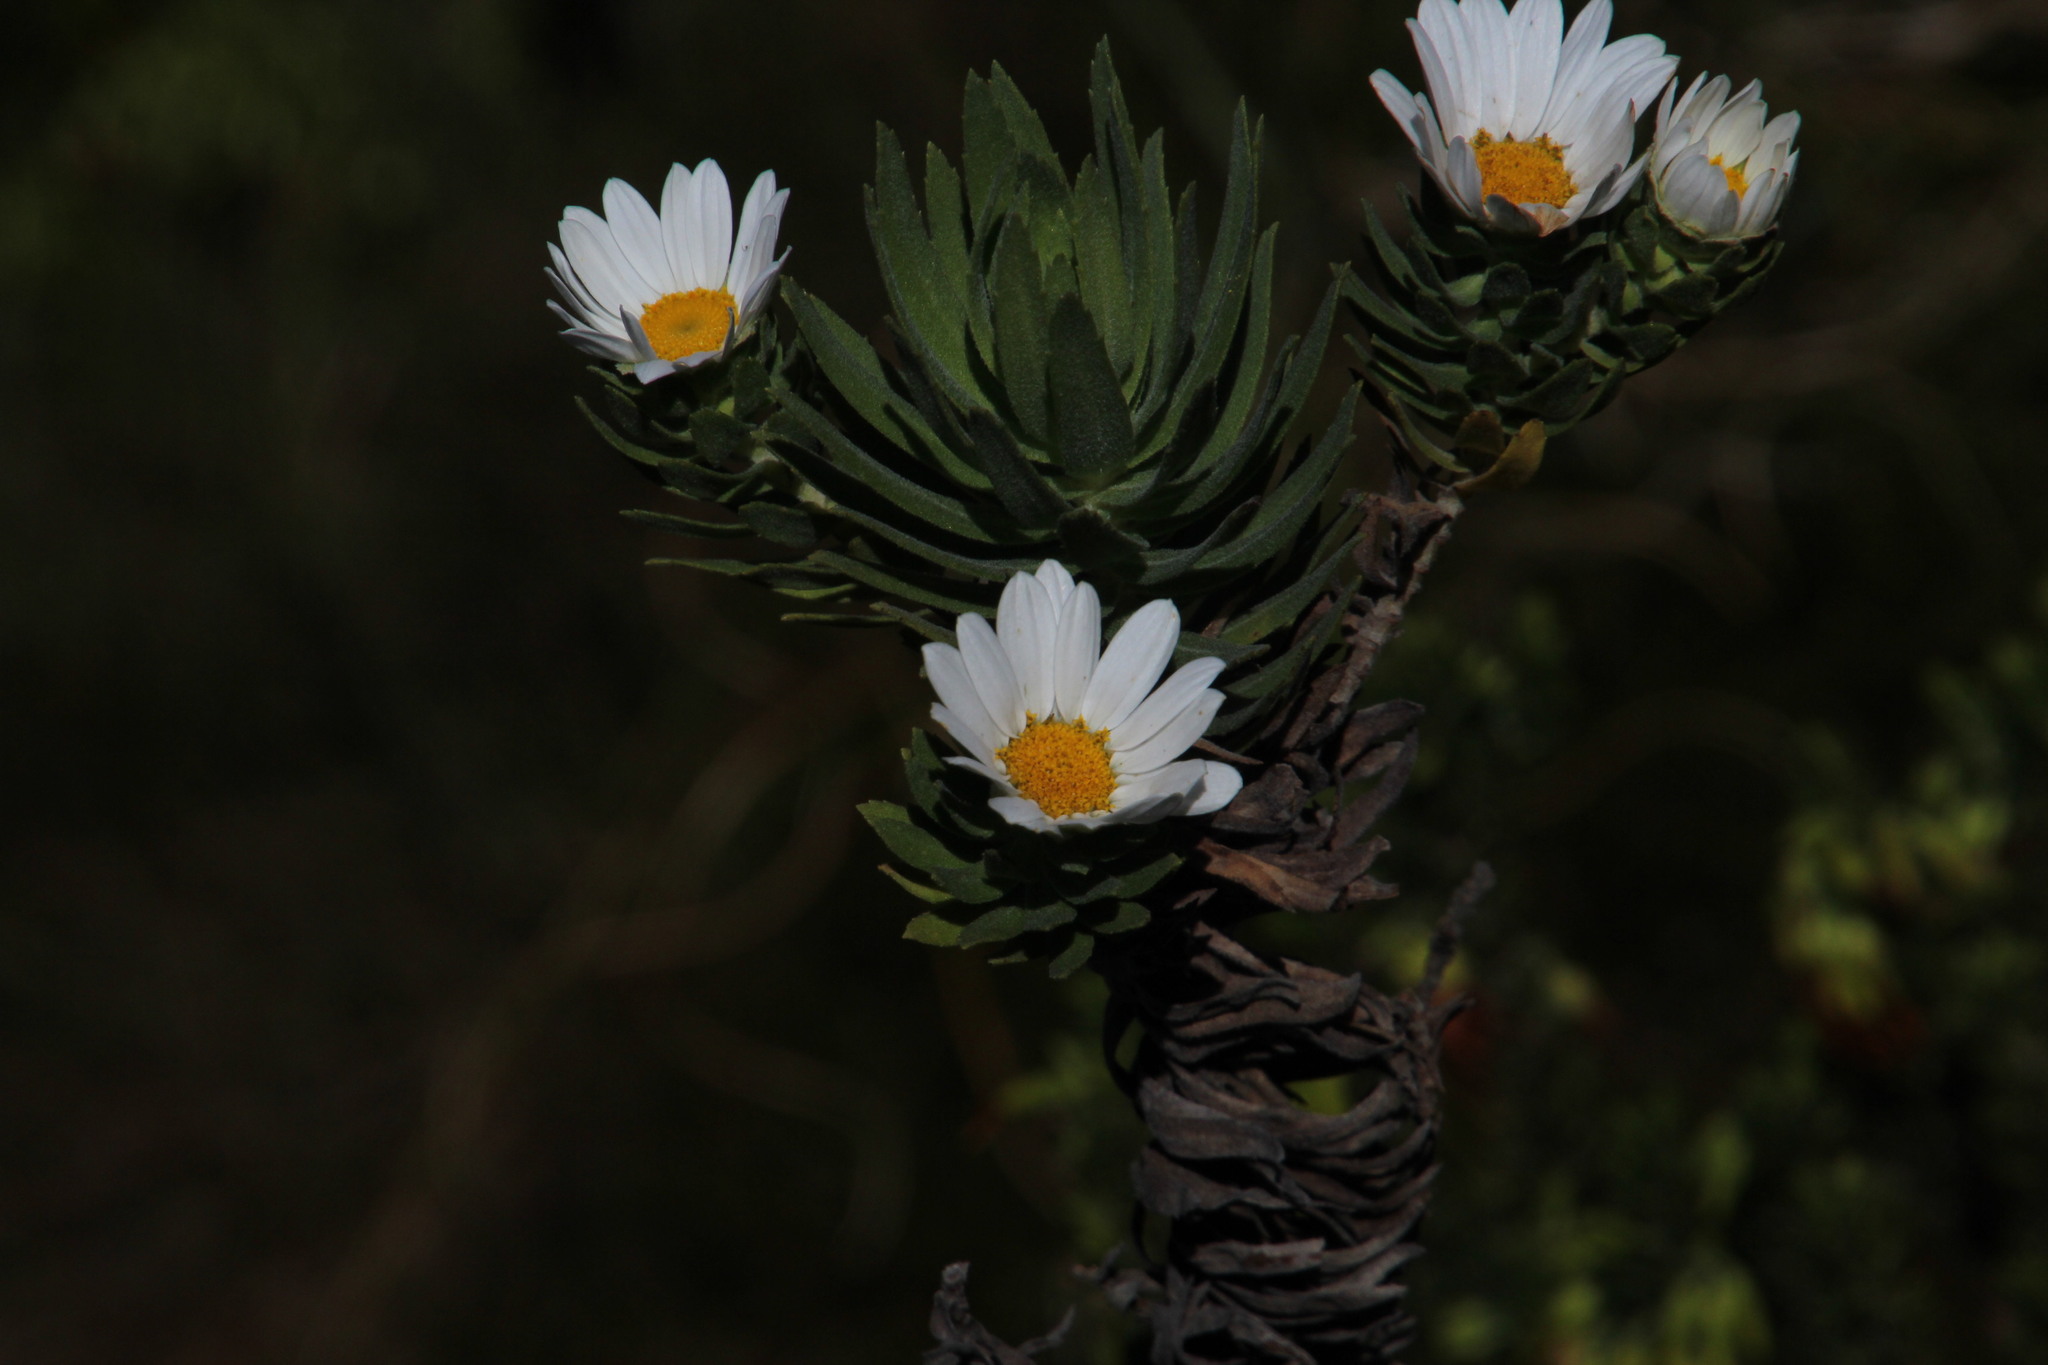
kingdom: Plantae
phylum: Tracheophyta
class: Magnoliopsida
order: Asterales
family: Asteraceae
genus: Osmitopsis
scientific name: Osmitopsis asteriscoides
